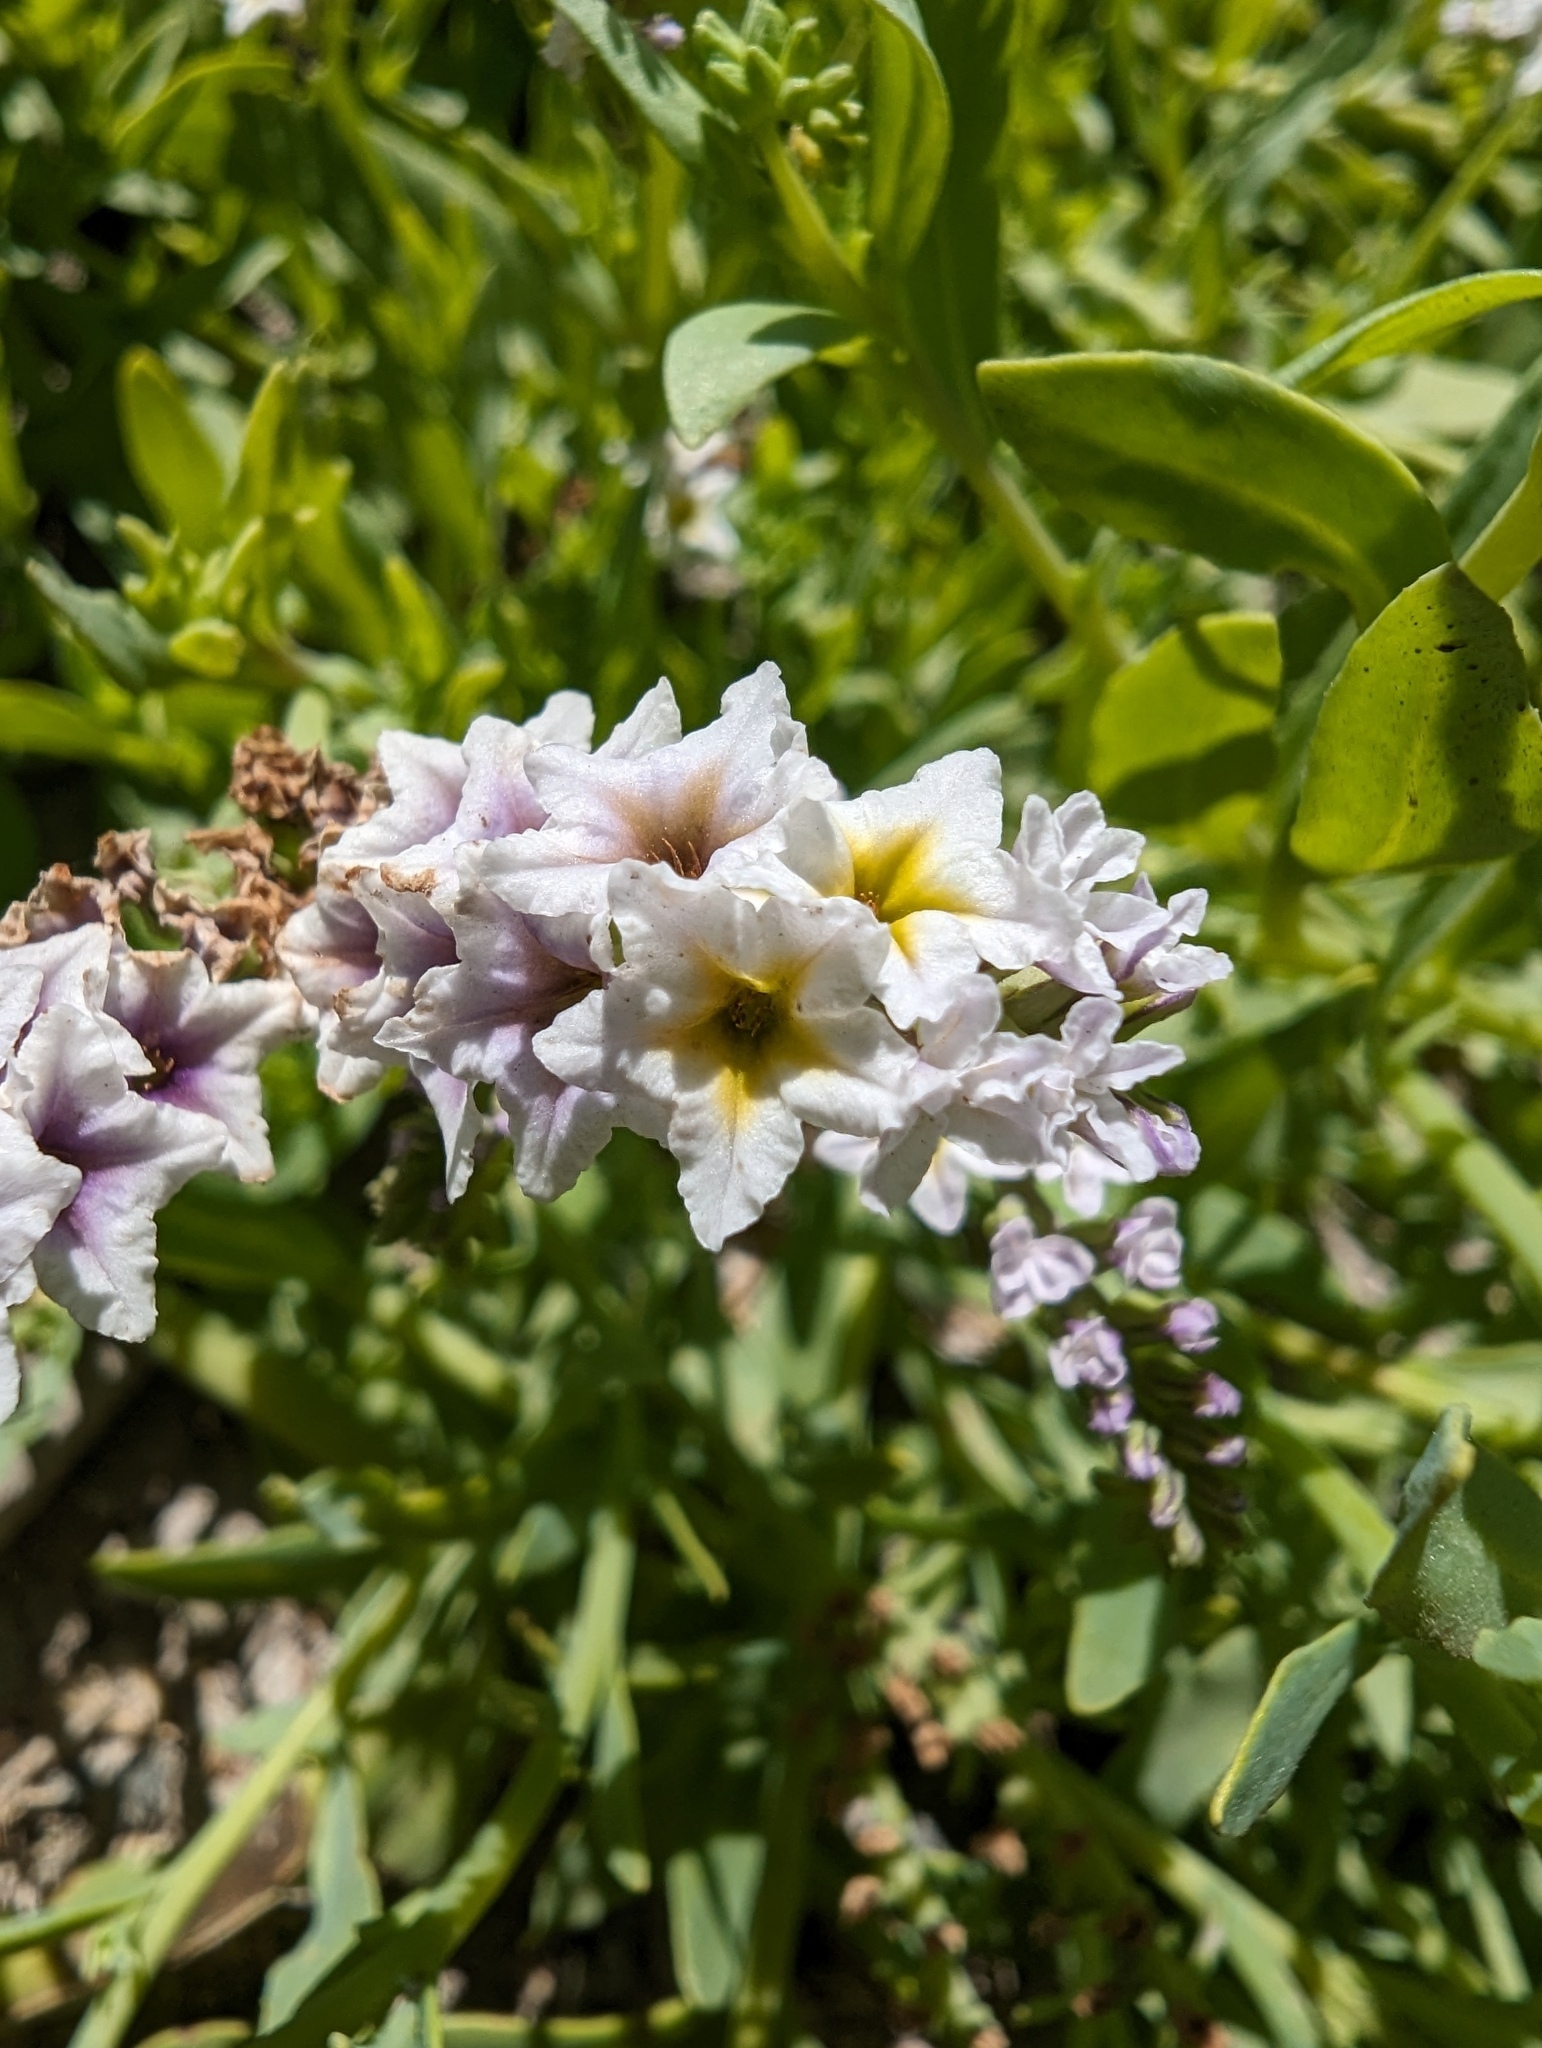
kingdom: Plantae
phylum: Tracheophyta
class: Magnoliopsida
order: Boraginales
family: Heliotropiaceae
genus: Heliotropium
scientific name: Heliotropium curassavicum
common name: Seaside heliotrope
